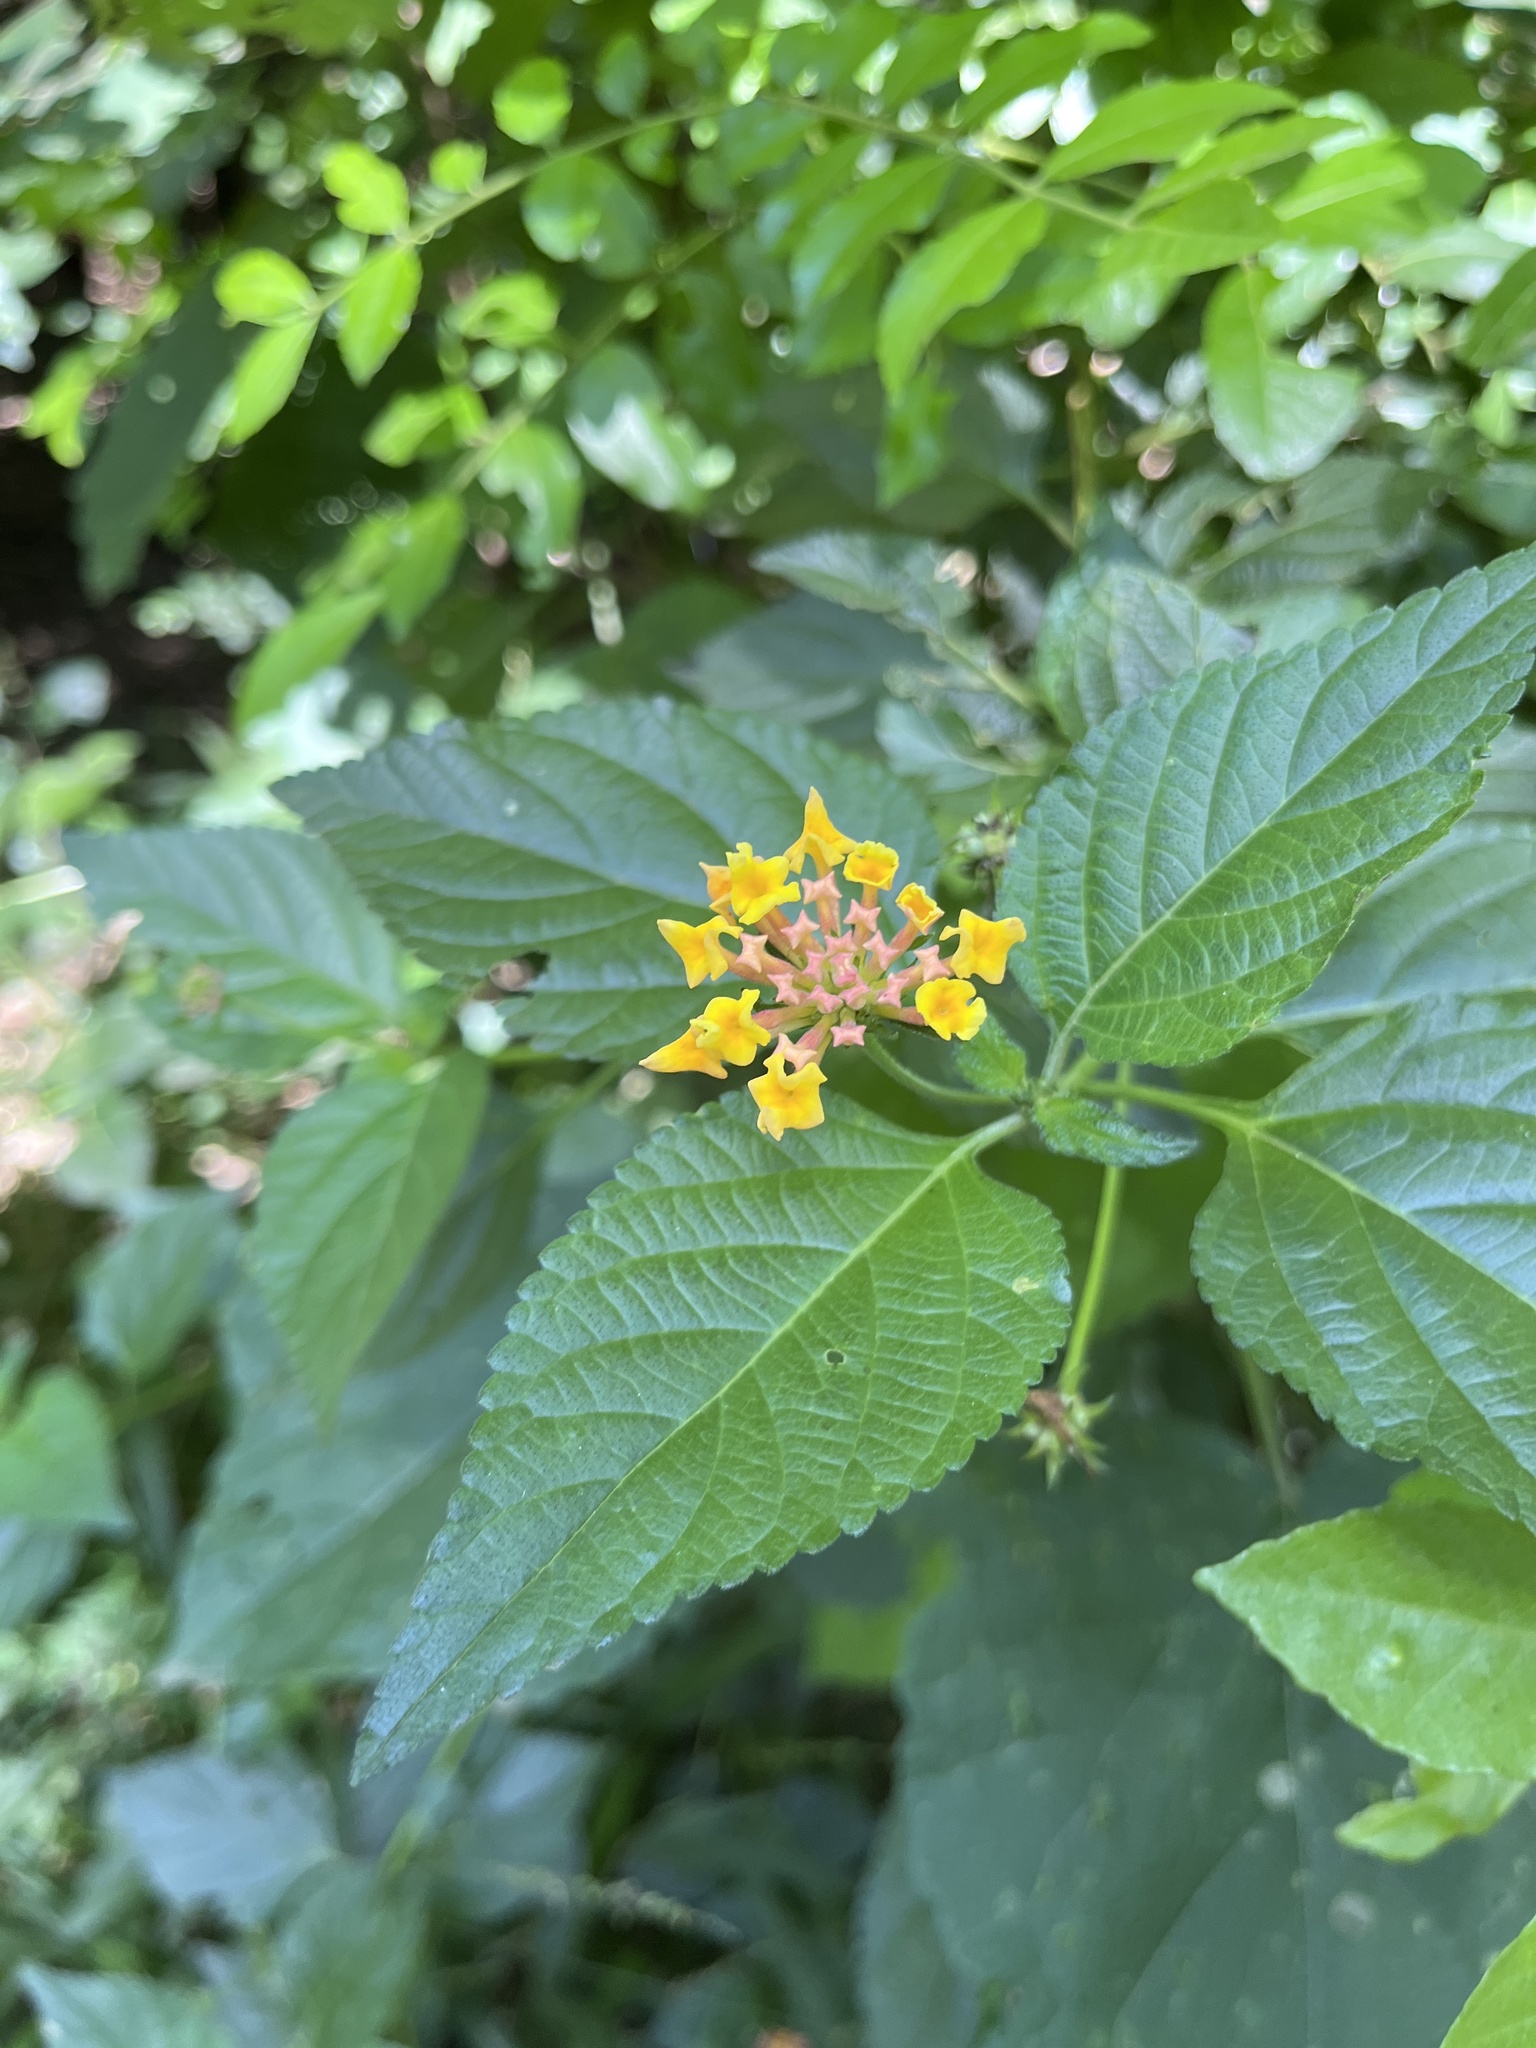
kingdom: Plantae
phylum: Tracheophyta
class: Magnoliopsida
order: Lamiales
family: Verbenaceae
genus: Lantana
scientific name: Lantana camara
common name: Lantana
